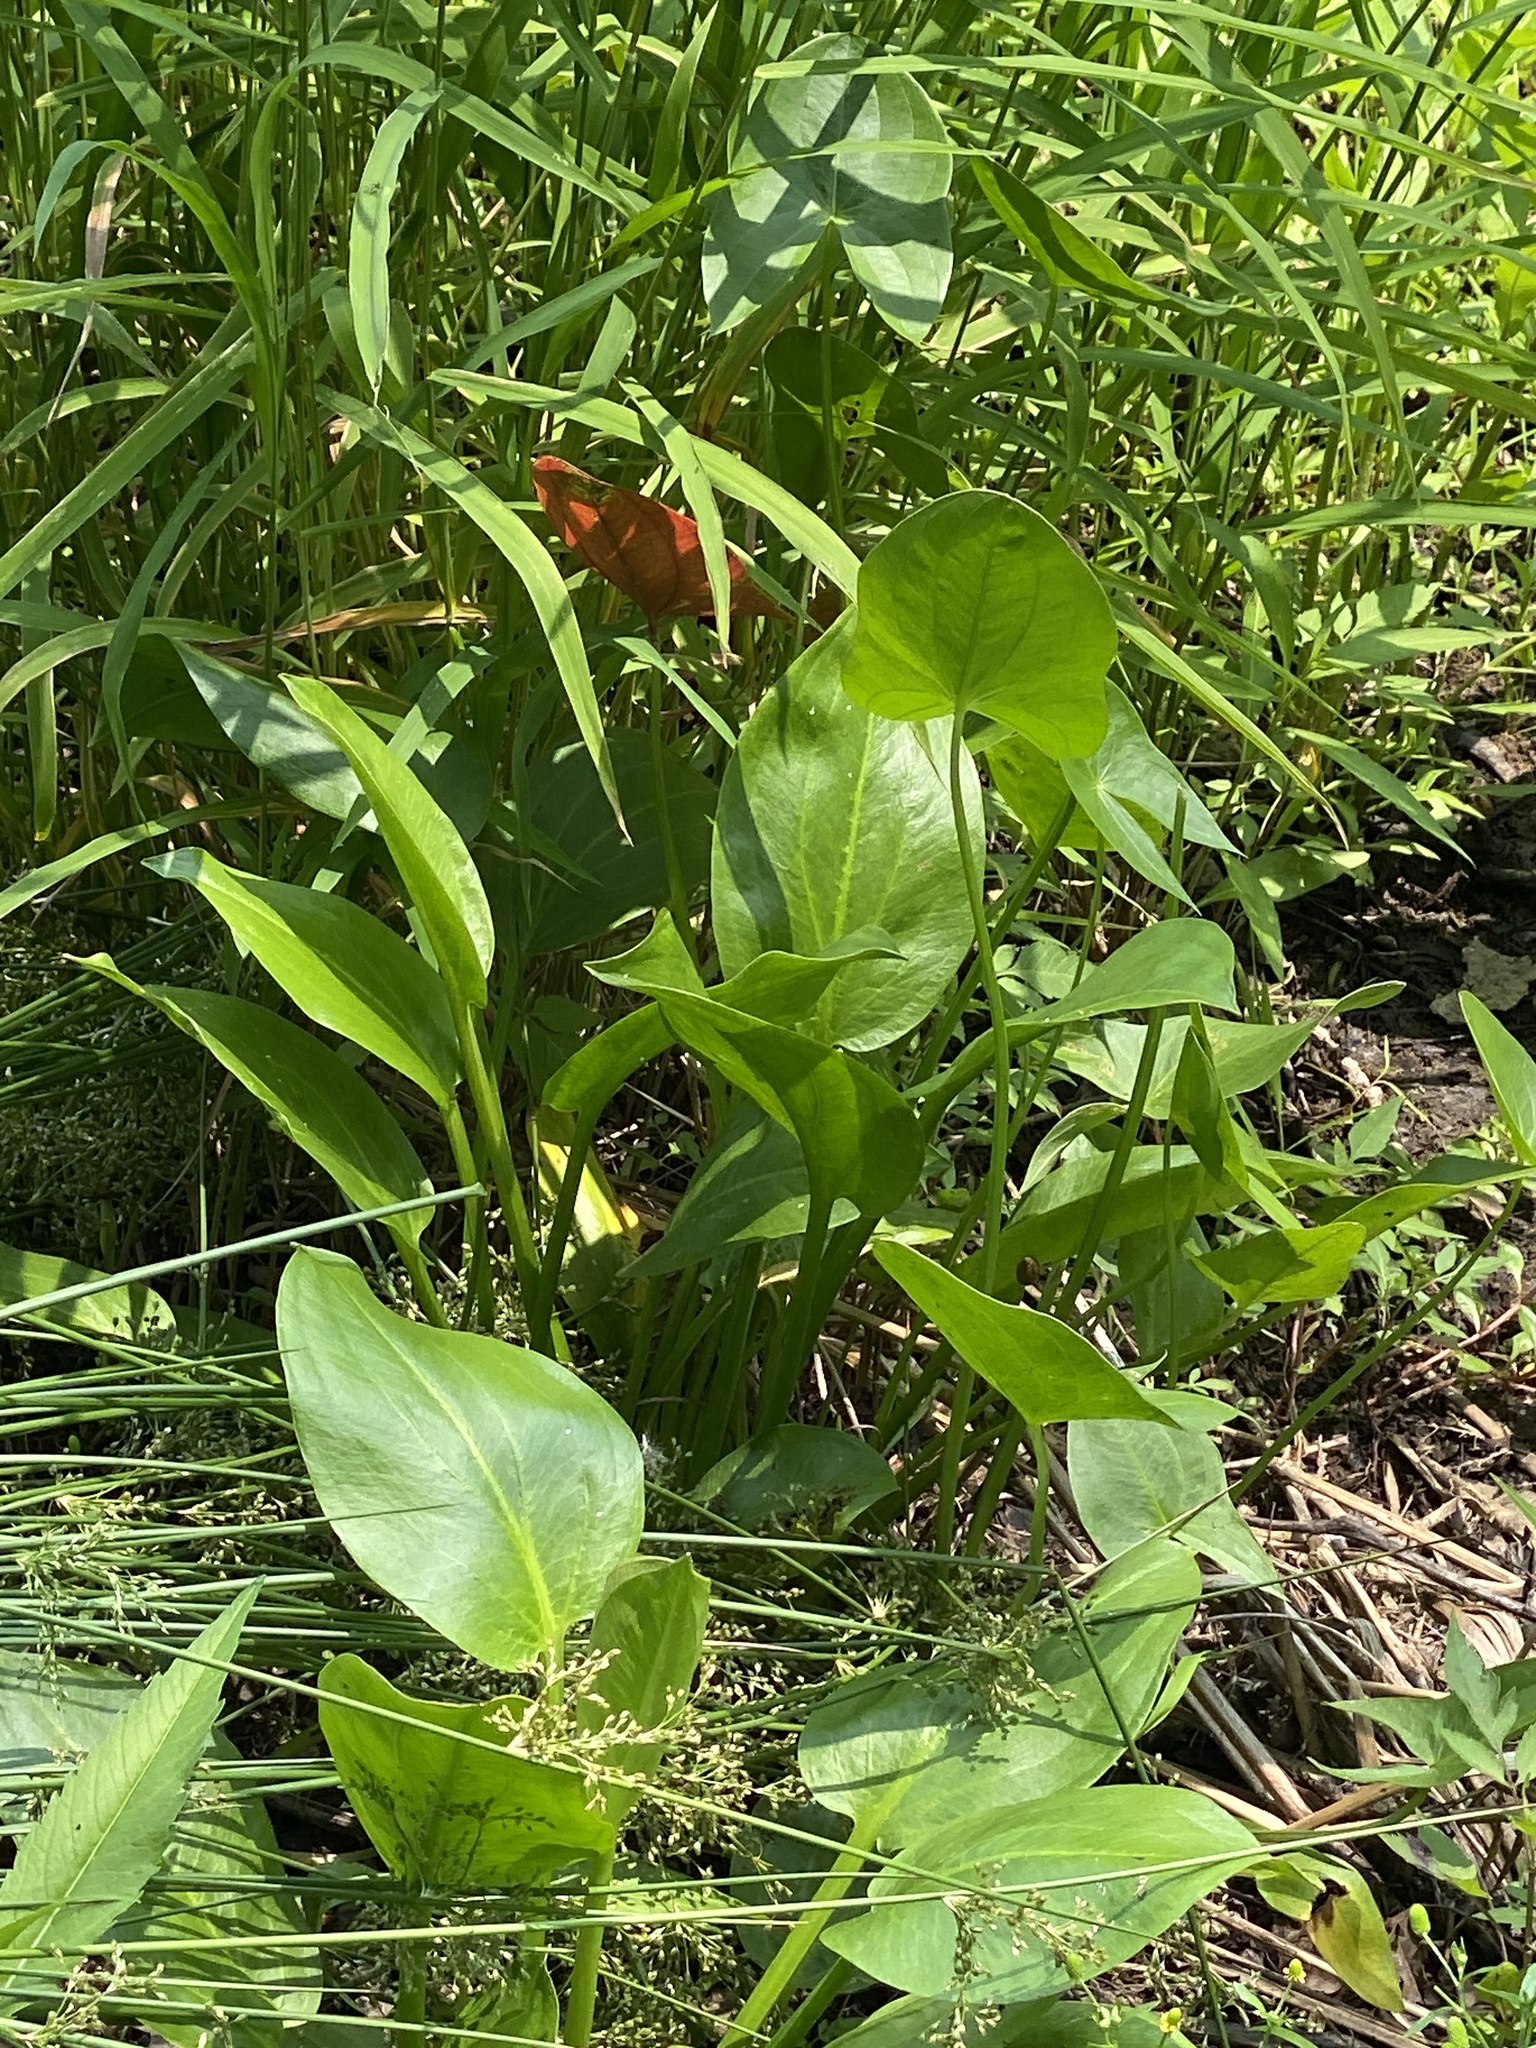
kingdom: Plantae
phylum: Tracheophyta
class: Liliopsida
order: Alismatales
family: Alismataceae
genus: Sagittaria
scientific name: Sagittaria latifolia
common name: Duck-potato
